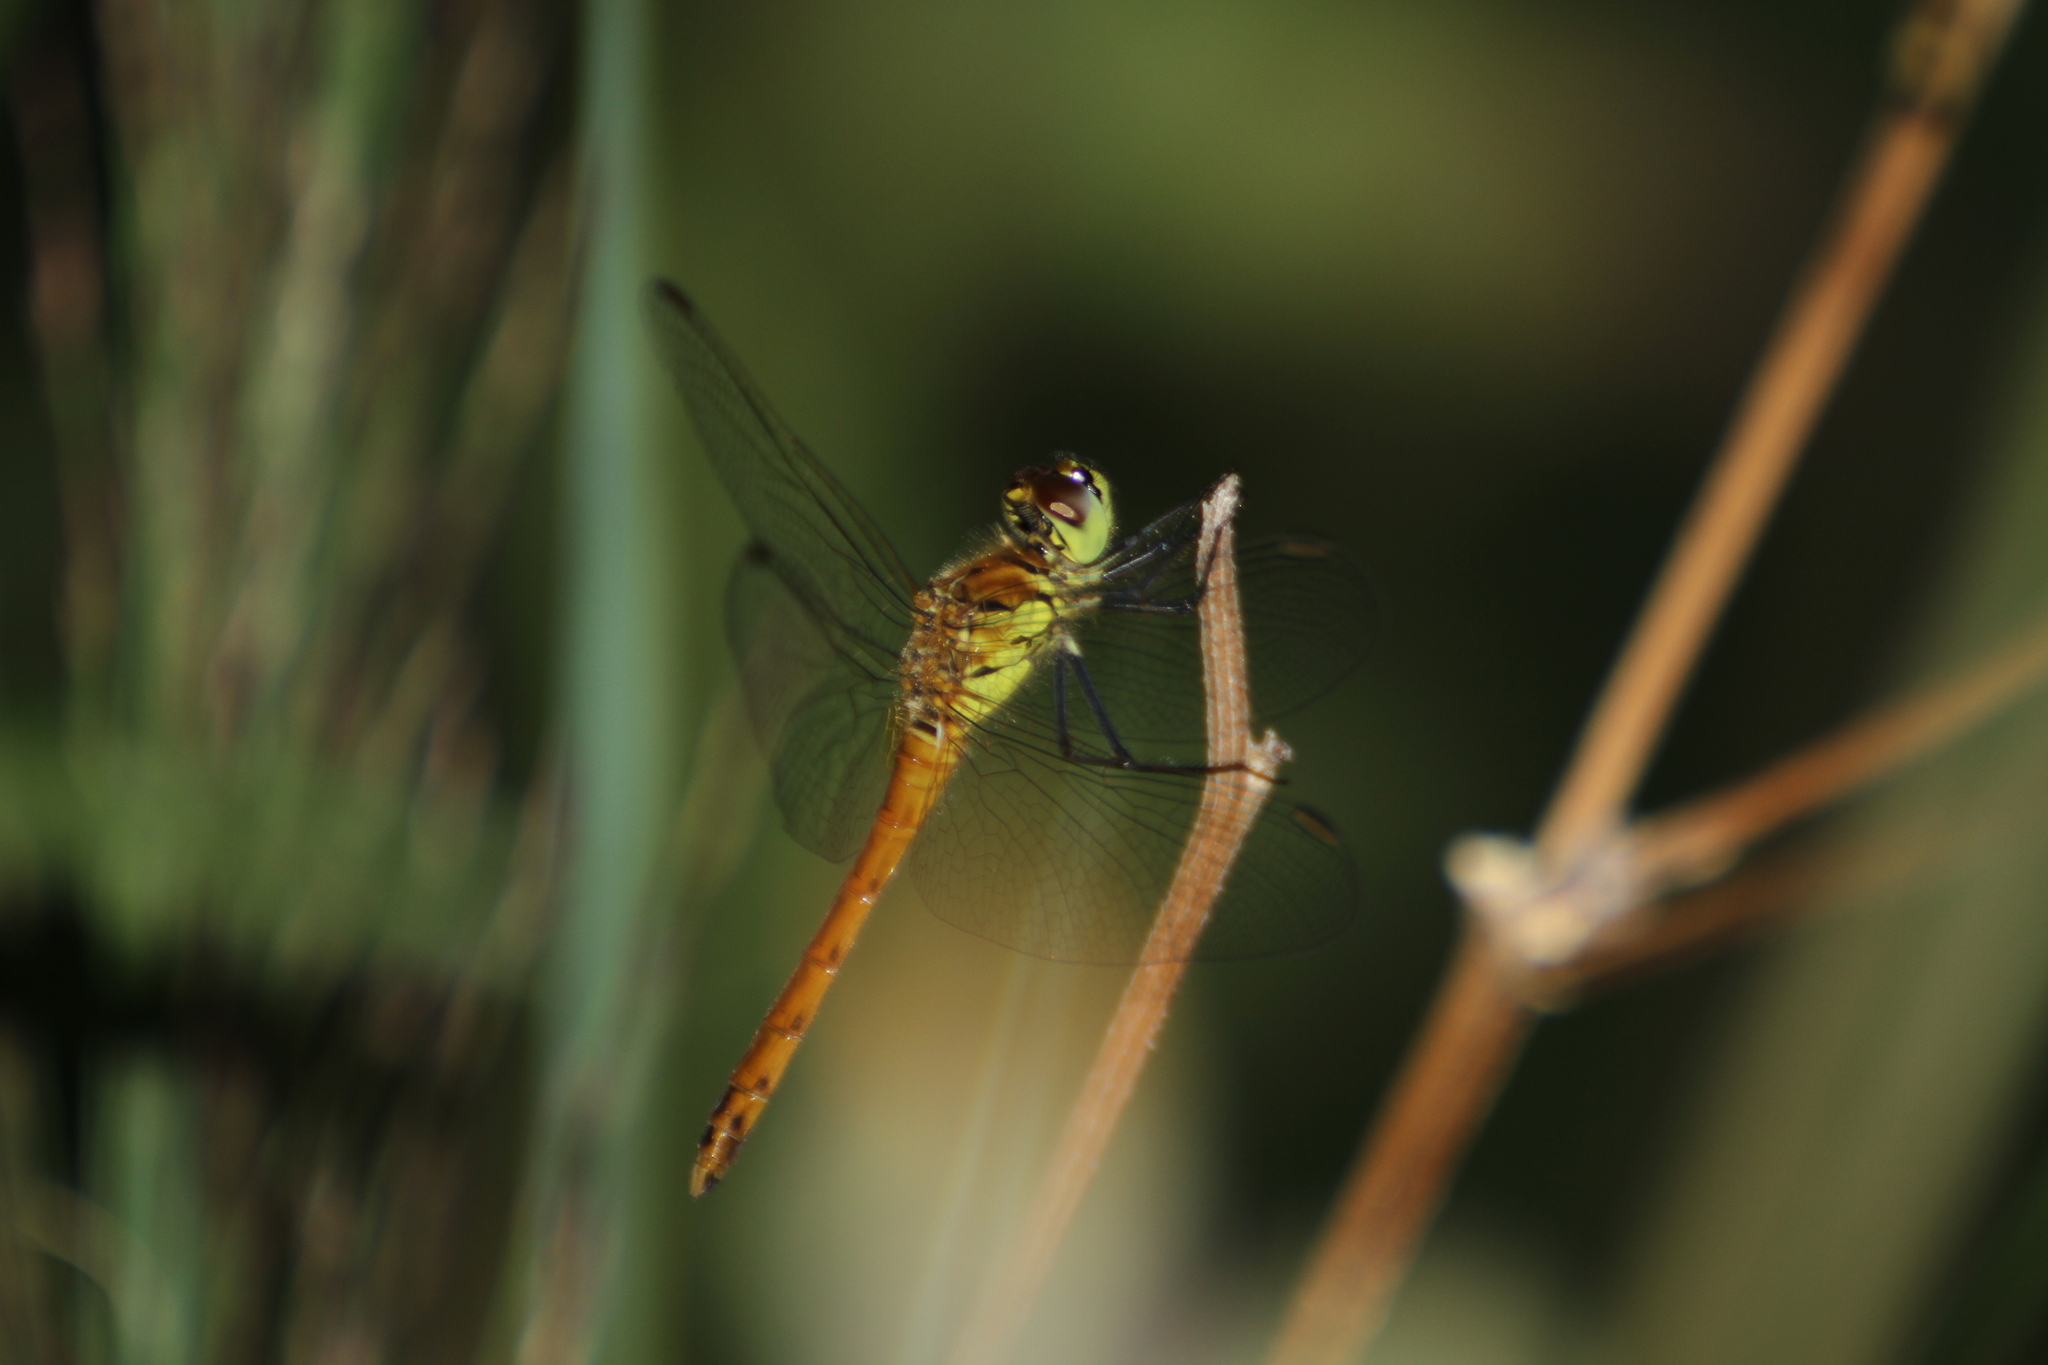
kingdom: Animalia
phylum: Arthropoda
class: Insecta
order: Odonata
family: Libellulidae
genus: Sympetrum
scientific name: Sympetrum depressiusculum
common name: Spotted darter
